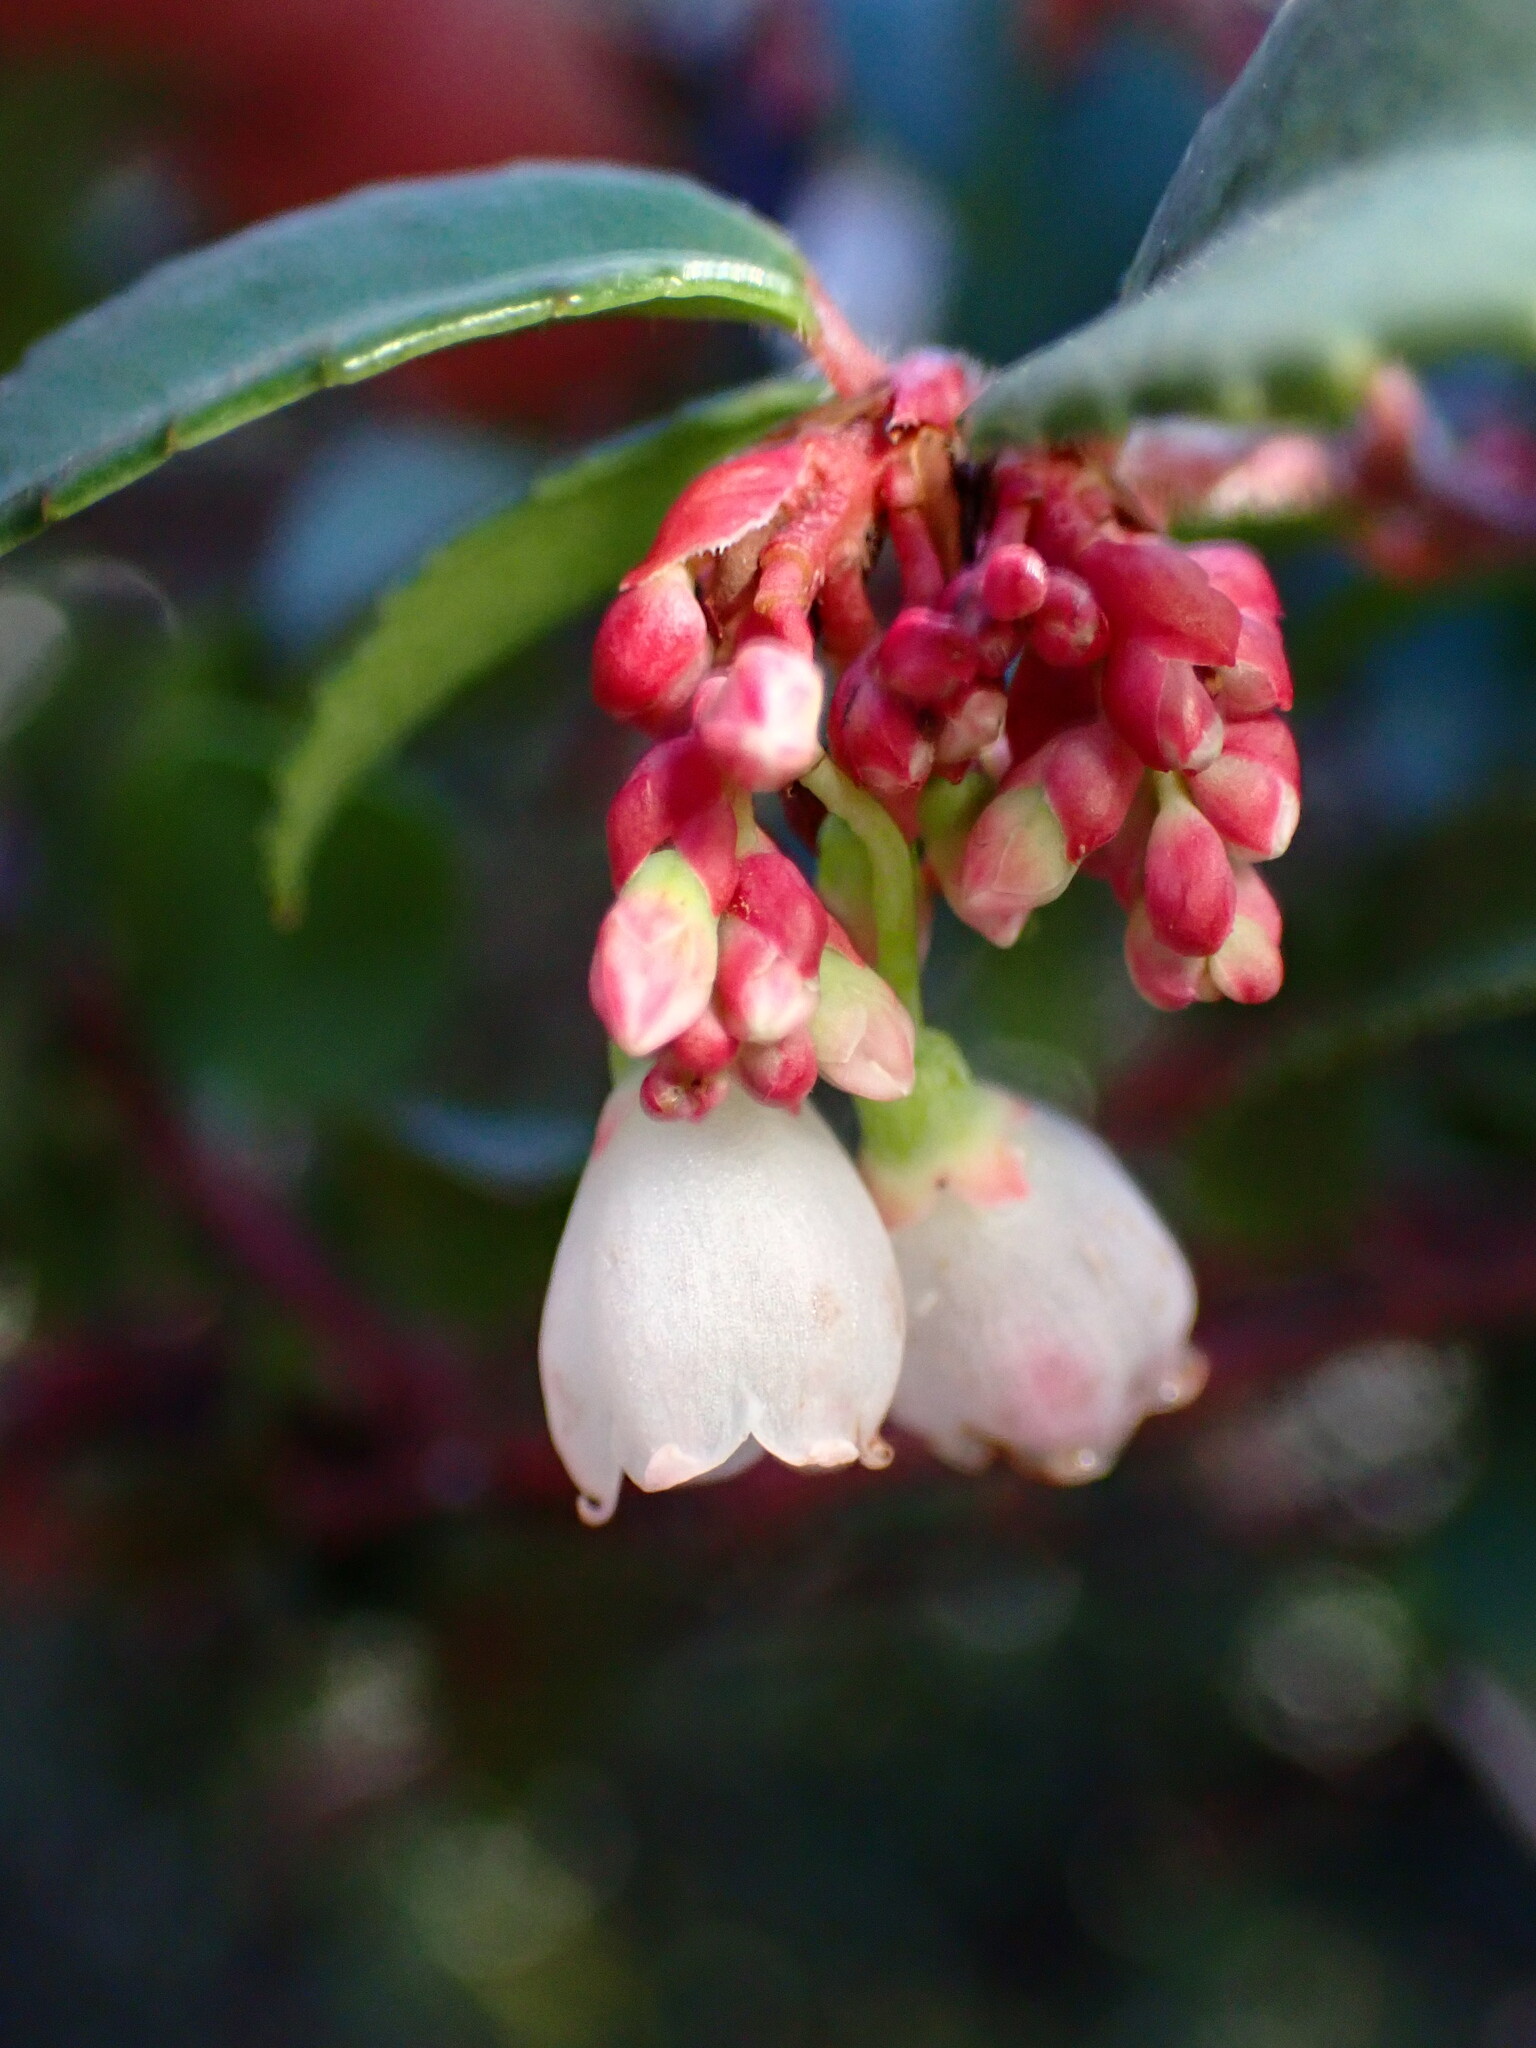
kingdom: Plantae
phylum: Tracheophyta
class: Magnoliopsida
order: Ericales
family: Ericaceae
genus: Vaccinium
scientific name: Vaccinium ovatum
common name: California-huckleberry
